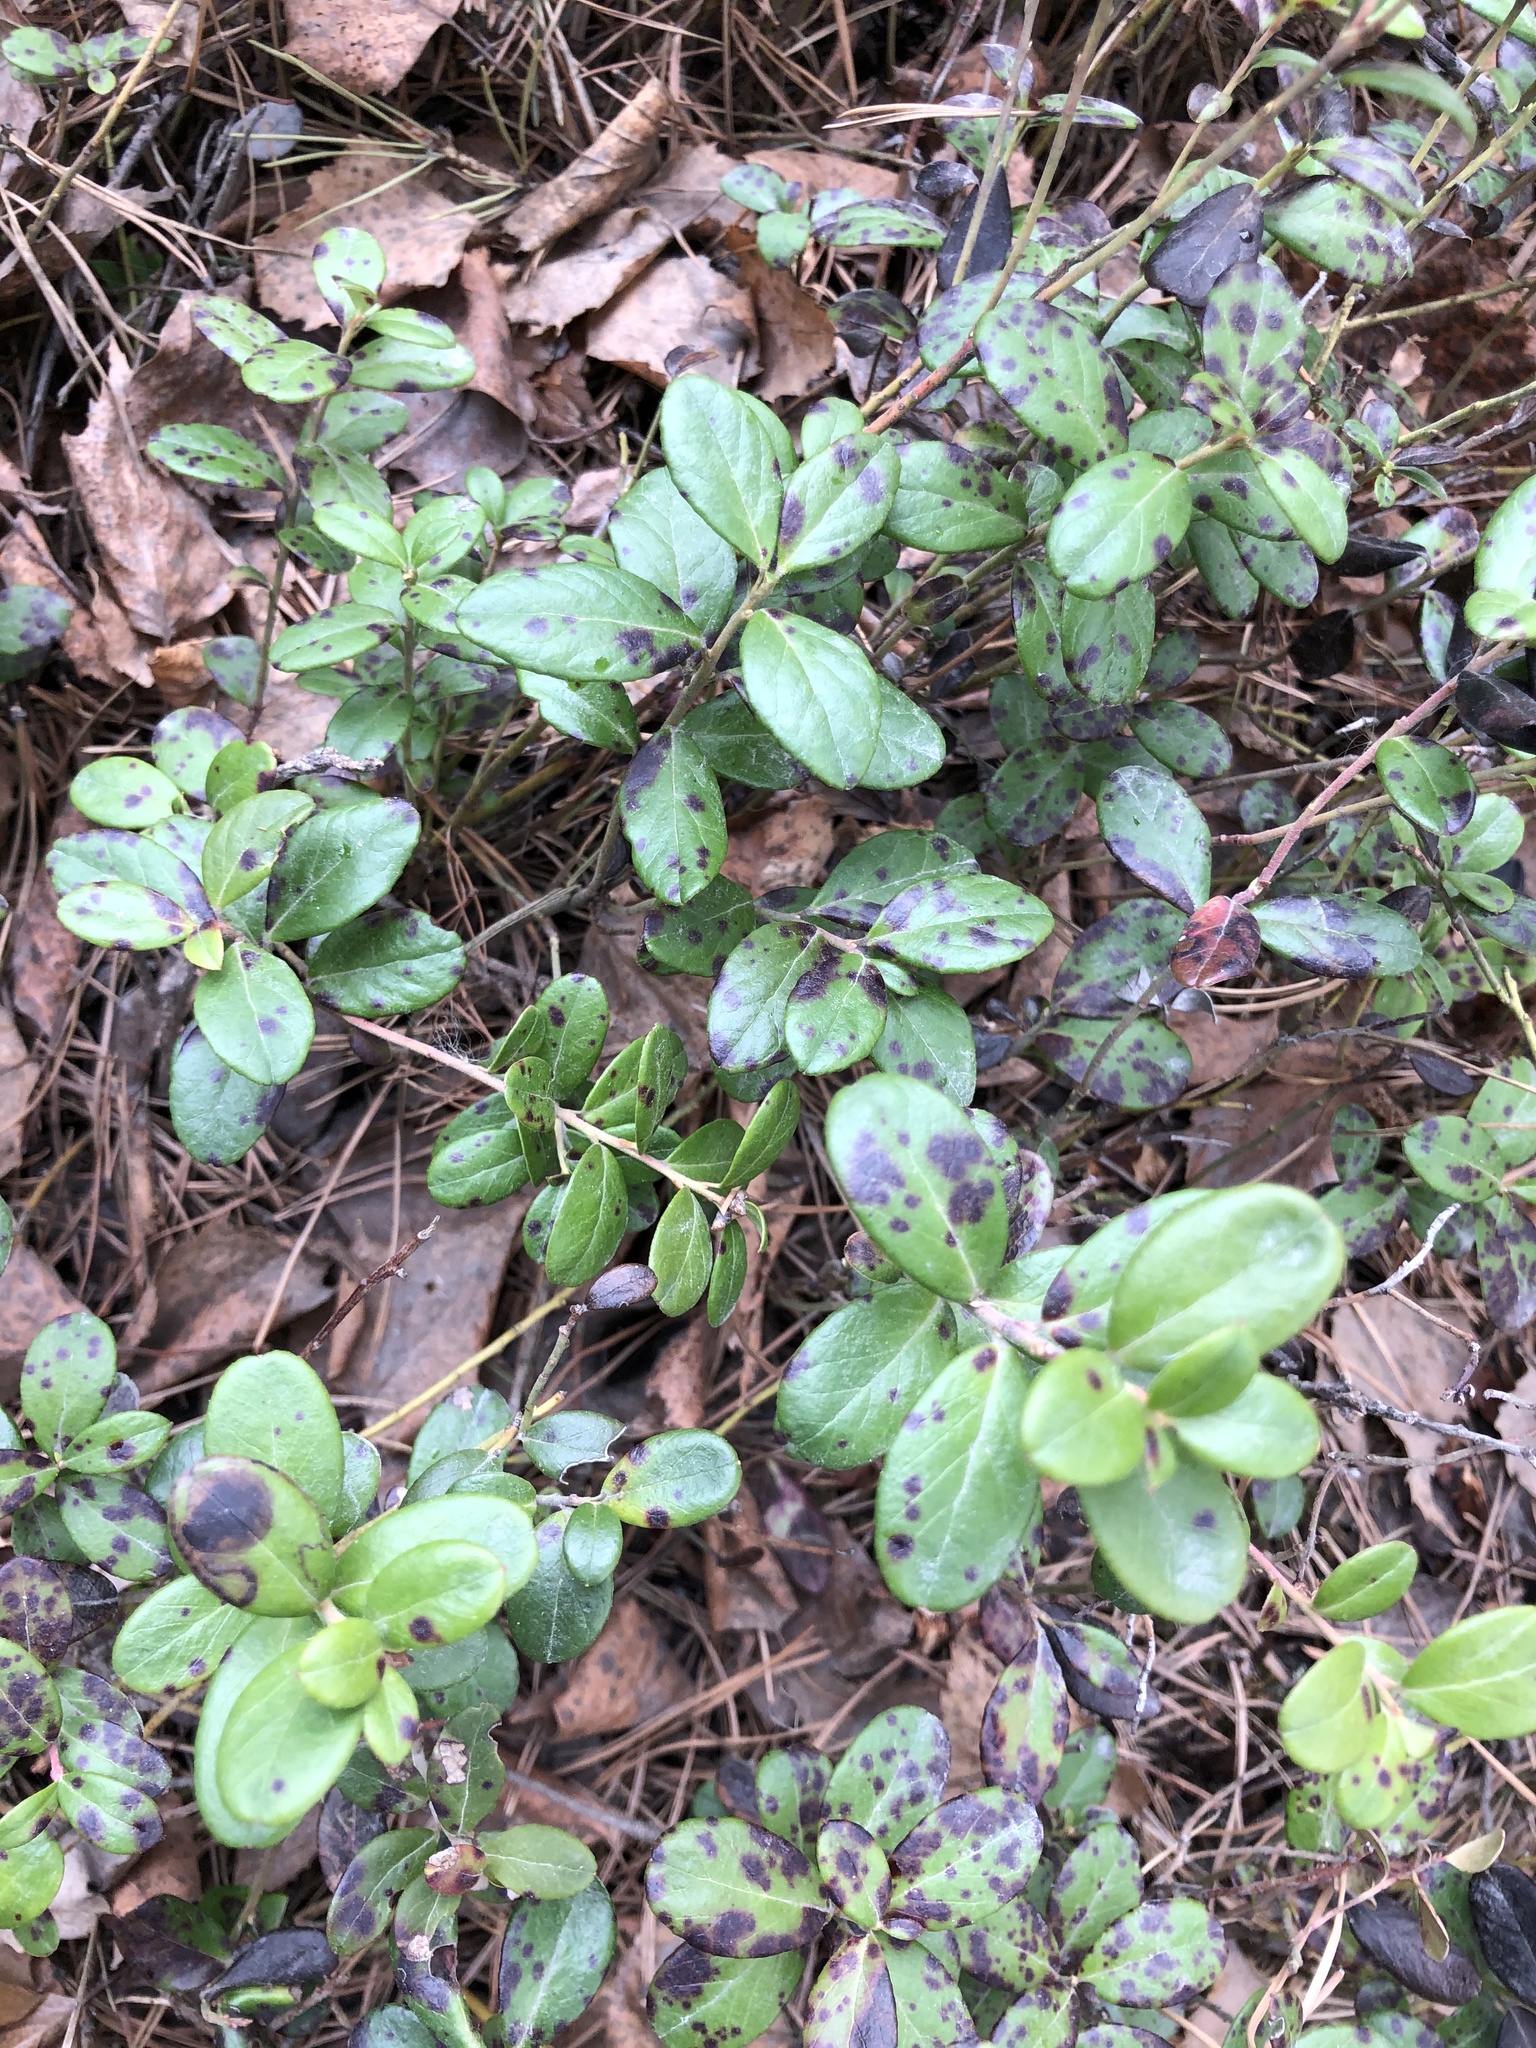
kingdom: Plantae
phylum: Tracheophyta
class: Magnoliopsida
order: Ericales
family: Ericaceae
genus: Vaccinium
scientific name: Vaccinium vitis-idaea
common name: Cowberry
